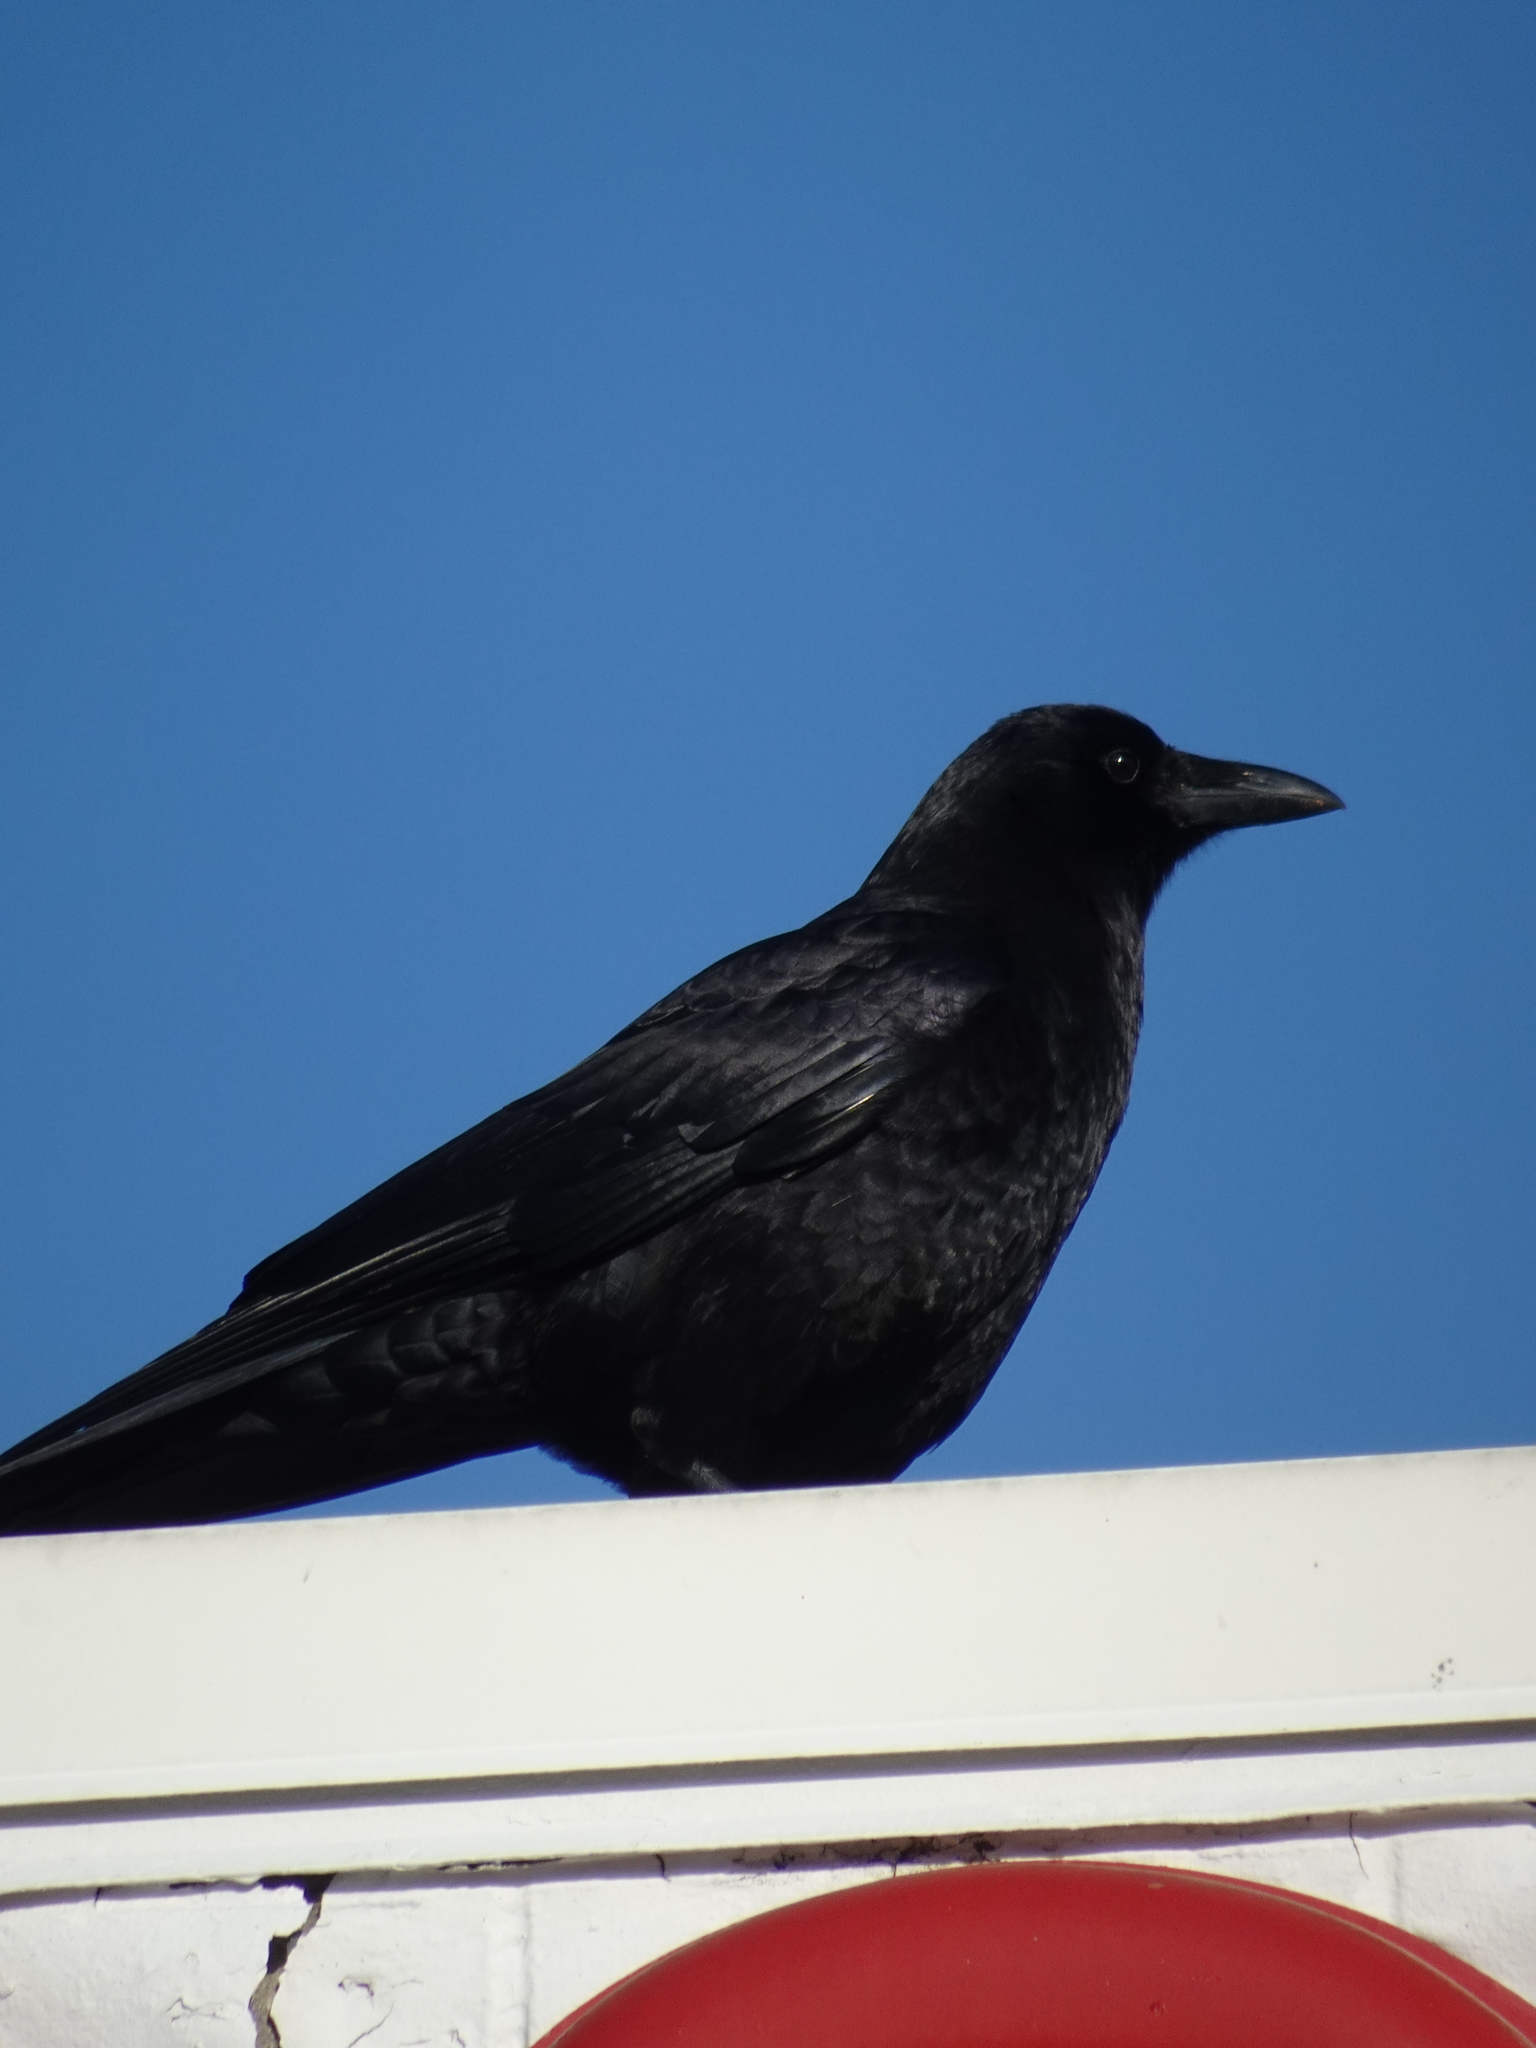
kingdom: Animalia
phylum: Chordata
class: Aves
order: Passeriformes
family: Corvidae
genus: Corvus
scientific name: Corvus brachyrhynchos
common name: American crow
